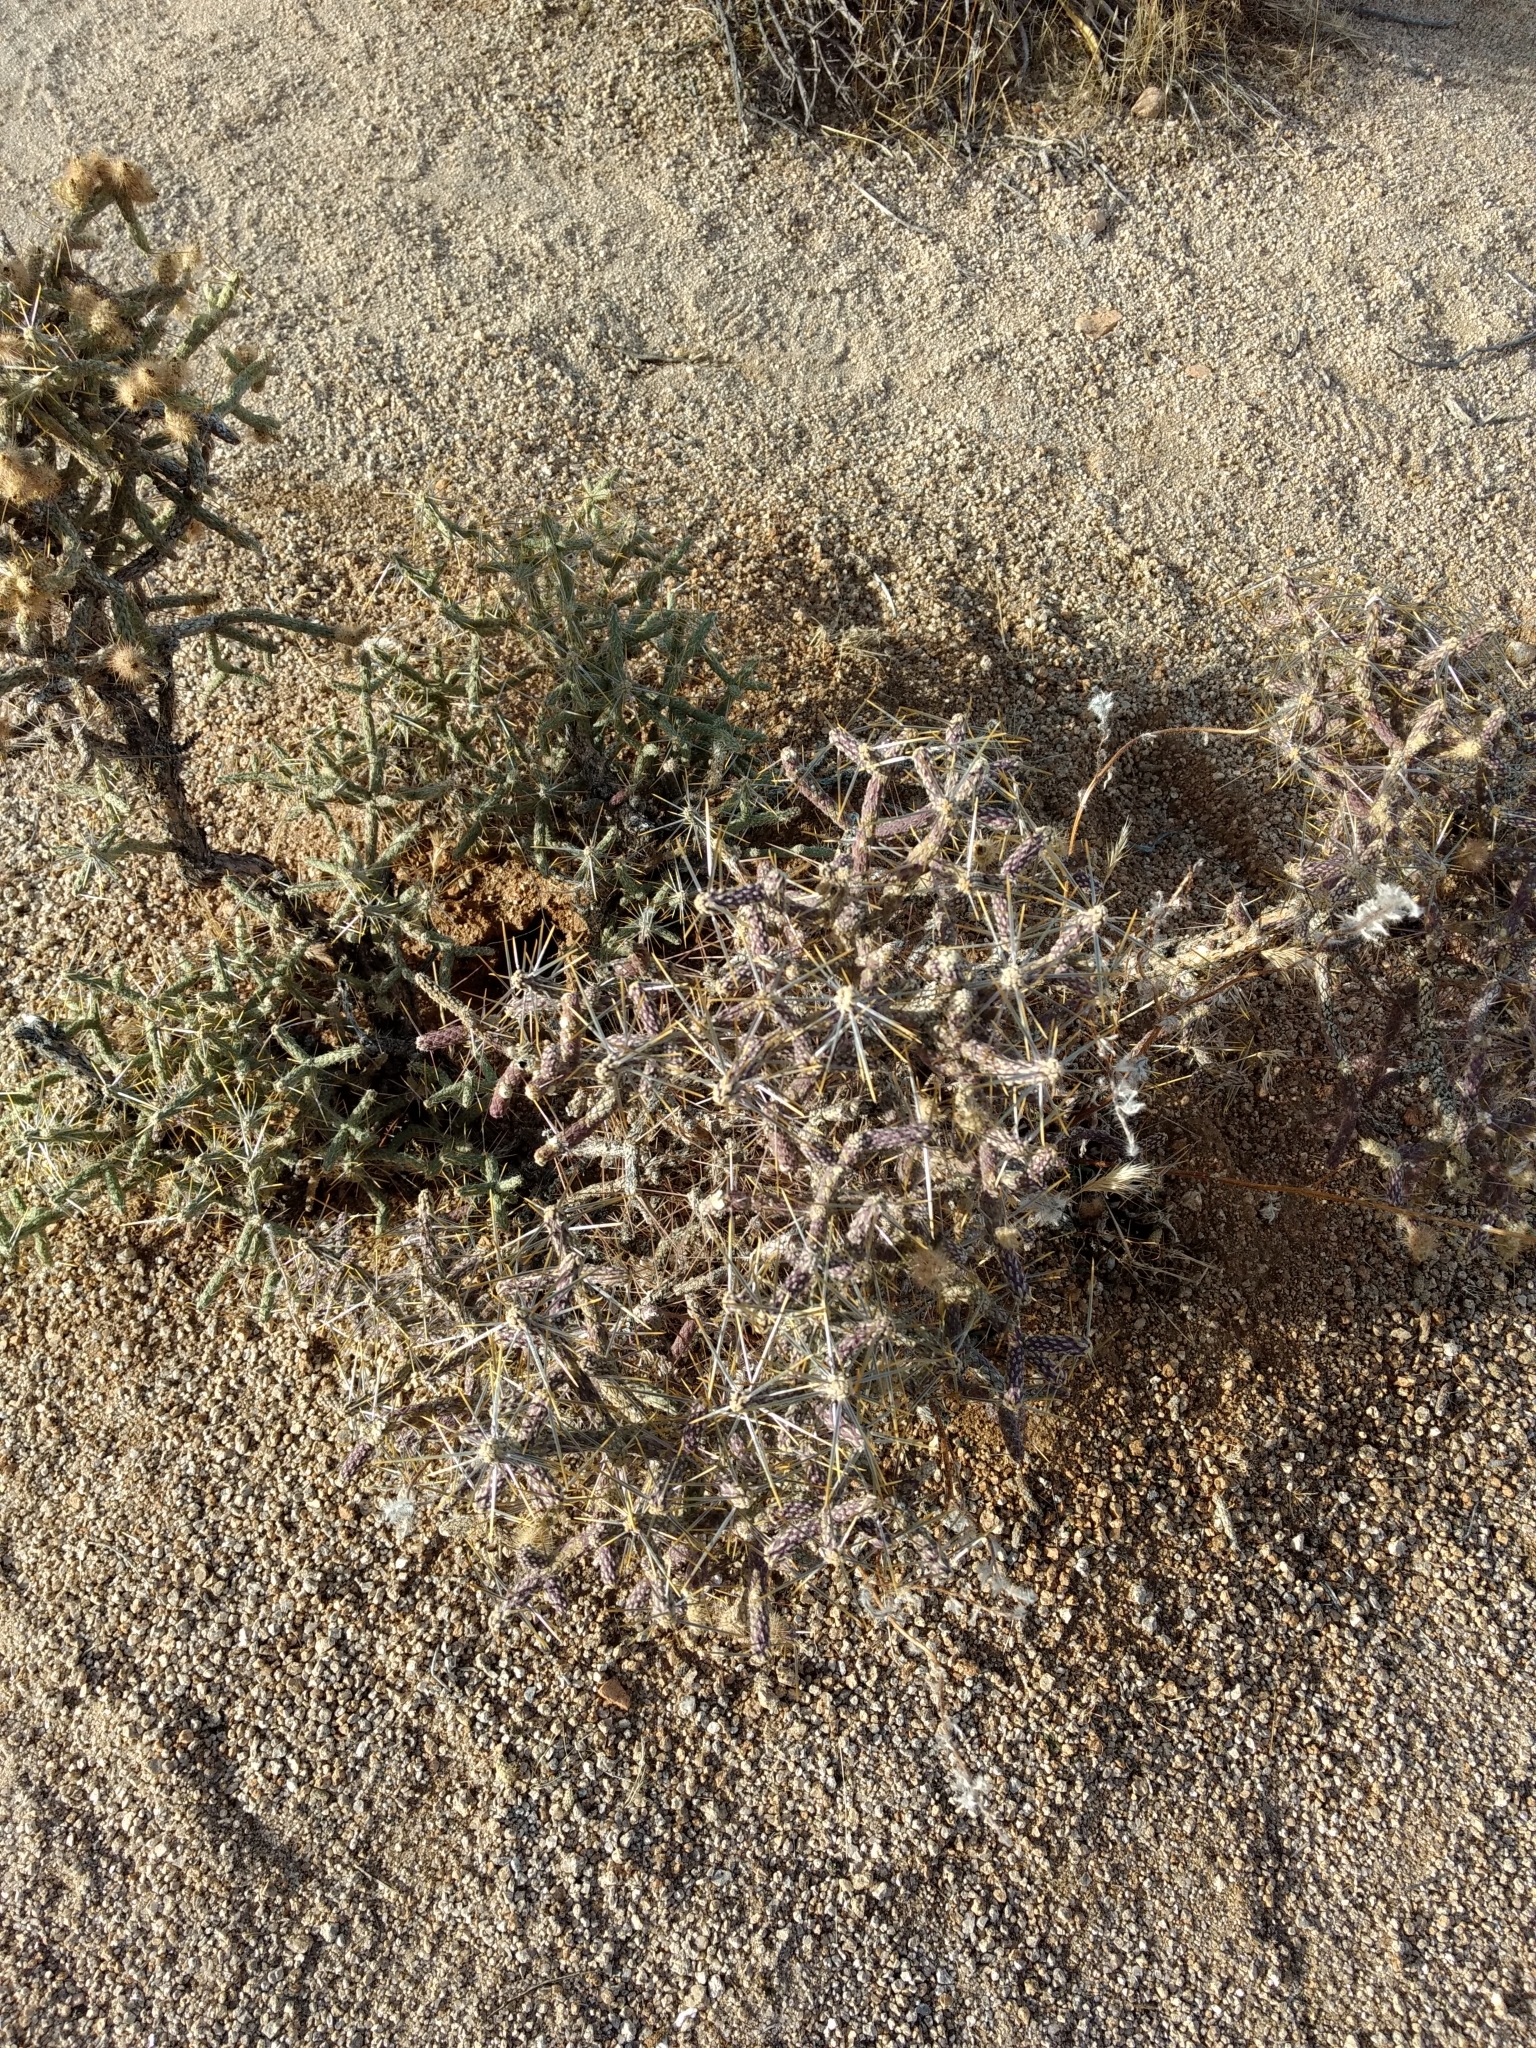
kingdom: Plantae
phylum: Tracheophyta
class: Magnoliopsida
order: Caryophyllales
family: Cactaceae
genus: Cylindropuntia
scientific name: Cylindropuntia ramosissima
